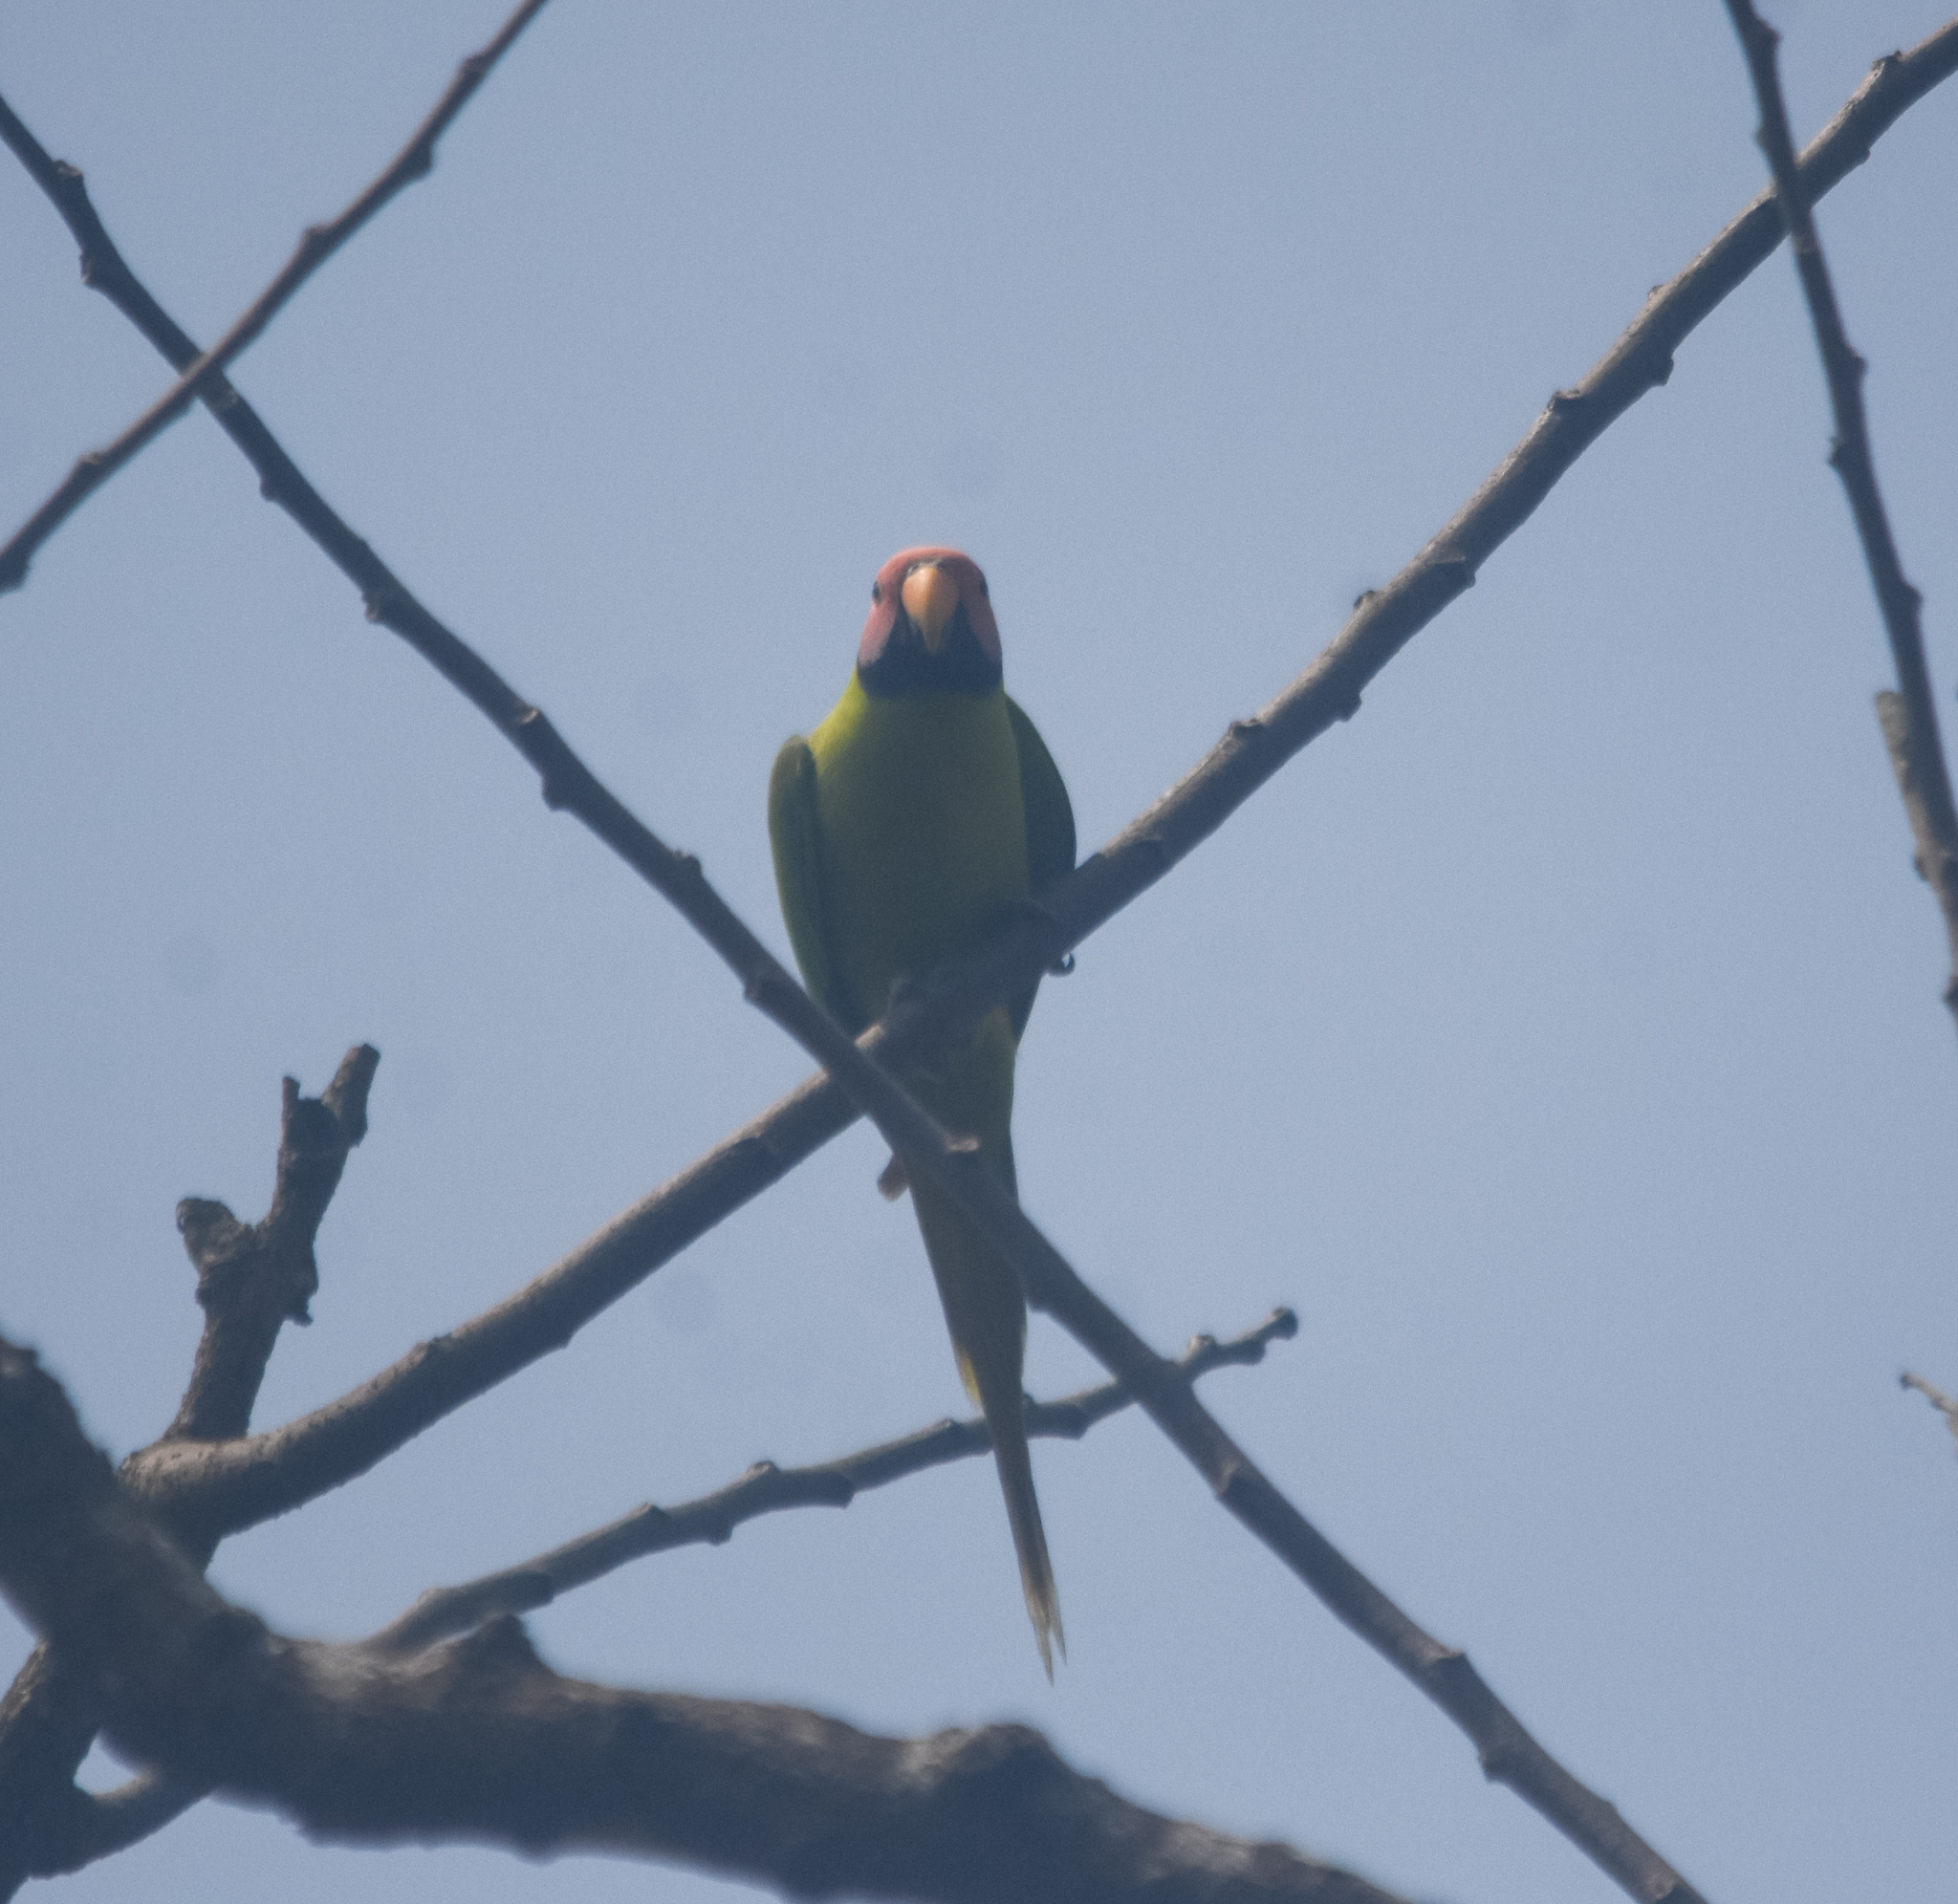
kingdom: Animalia
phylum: Chordata
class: Aves
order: Psittaciformes
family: Psittacidae
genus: Psittacula
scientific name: Psittacula roseata
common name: Blossom-headed parakeet
